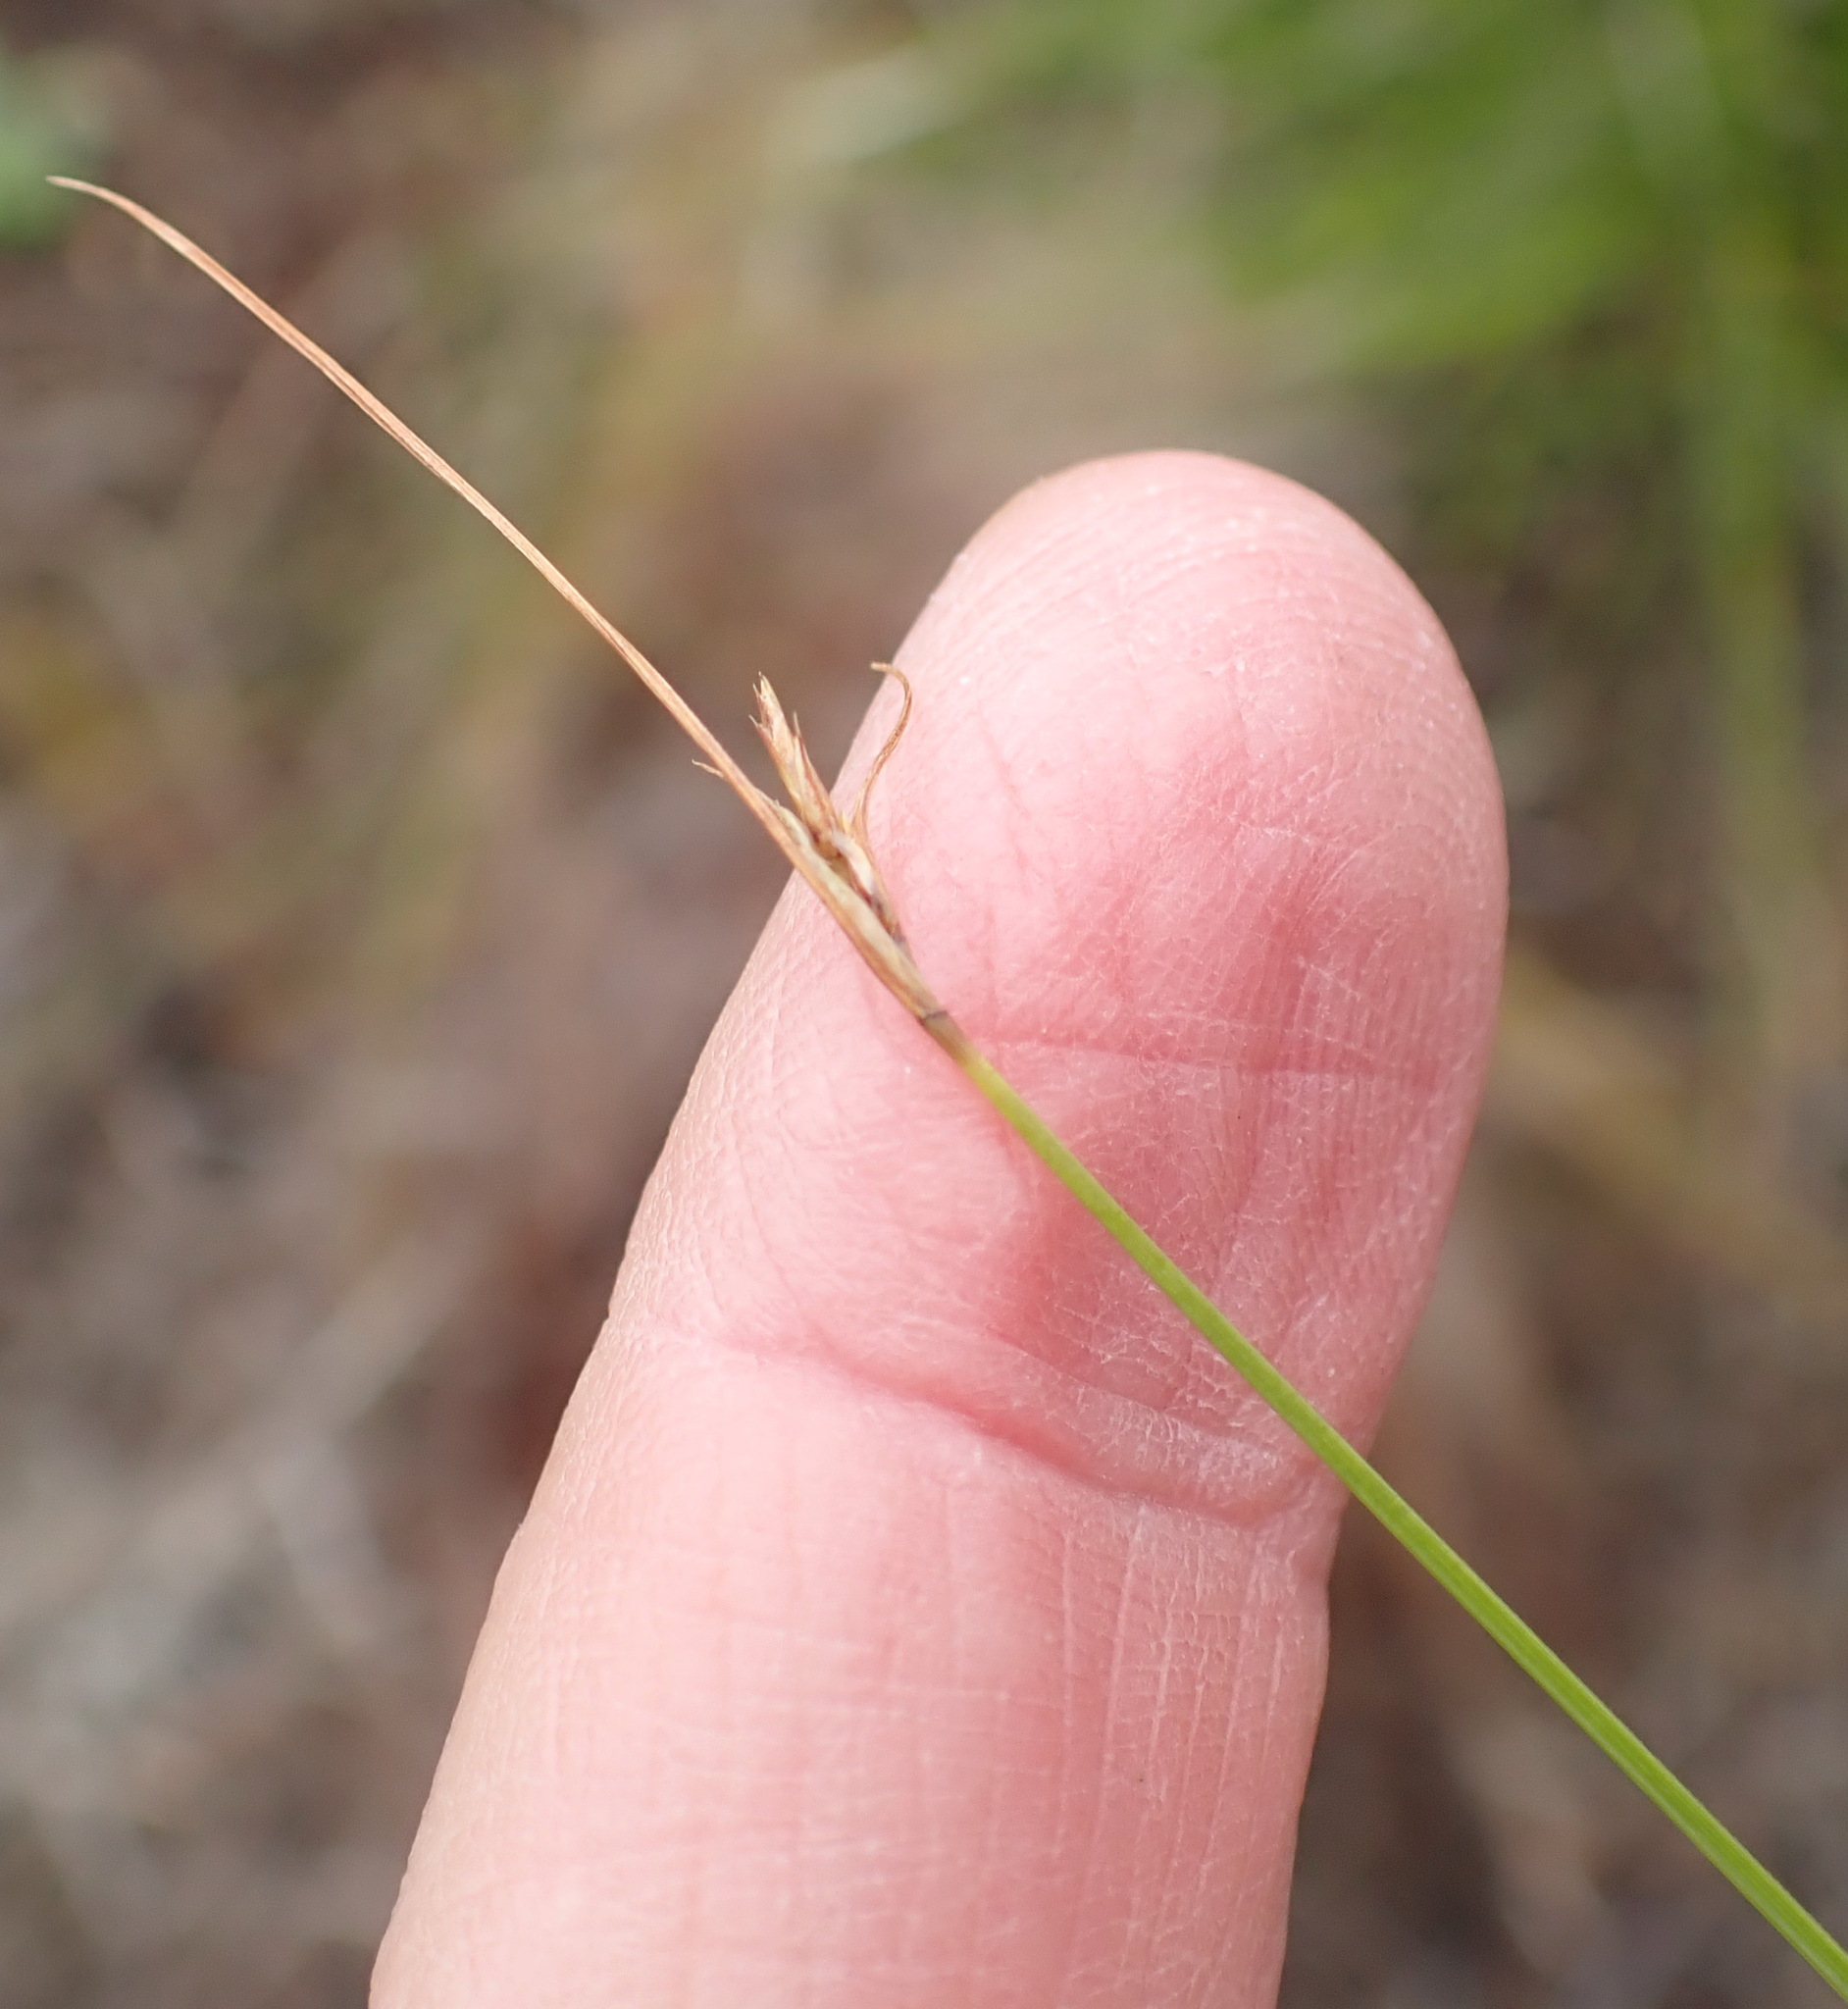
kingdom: Plantae
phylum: Tracheophyta
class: Liliopsida
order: Poales
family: Cyperaceae
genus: Schoenus
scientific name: Schoenus gracillimus
